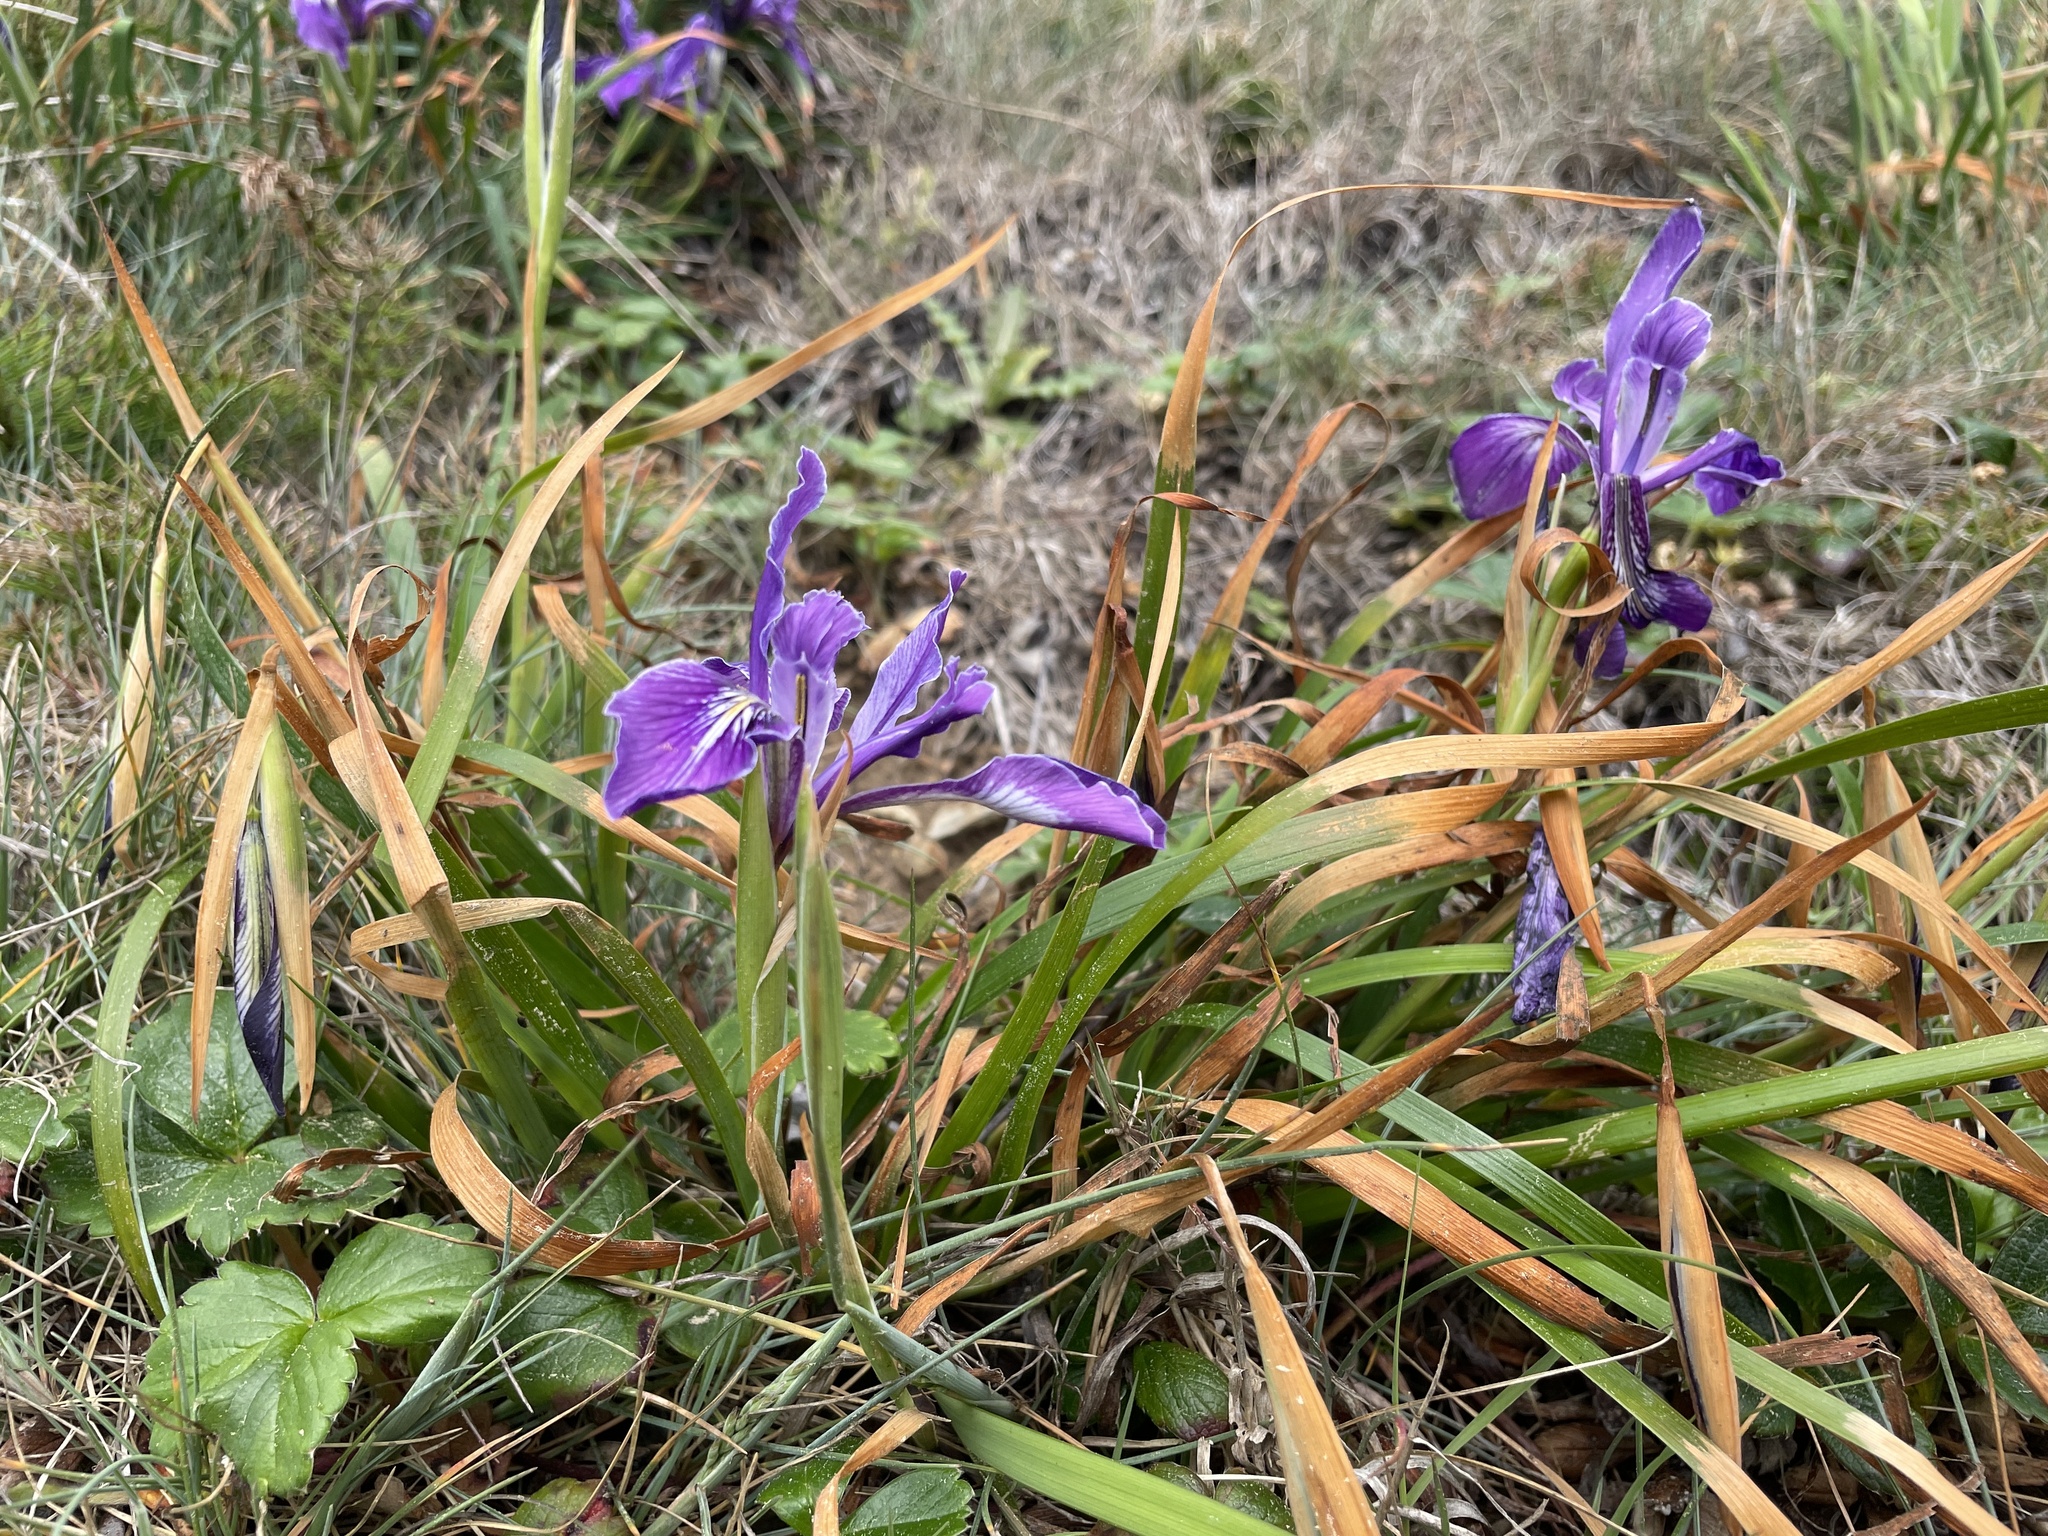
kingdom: Plantae
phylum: Tracheophyta
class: Liliopsida
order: Asparagales
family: Iridaceae
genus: Iris
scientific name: Iris tenax
